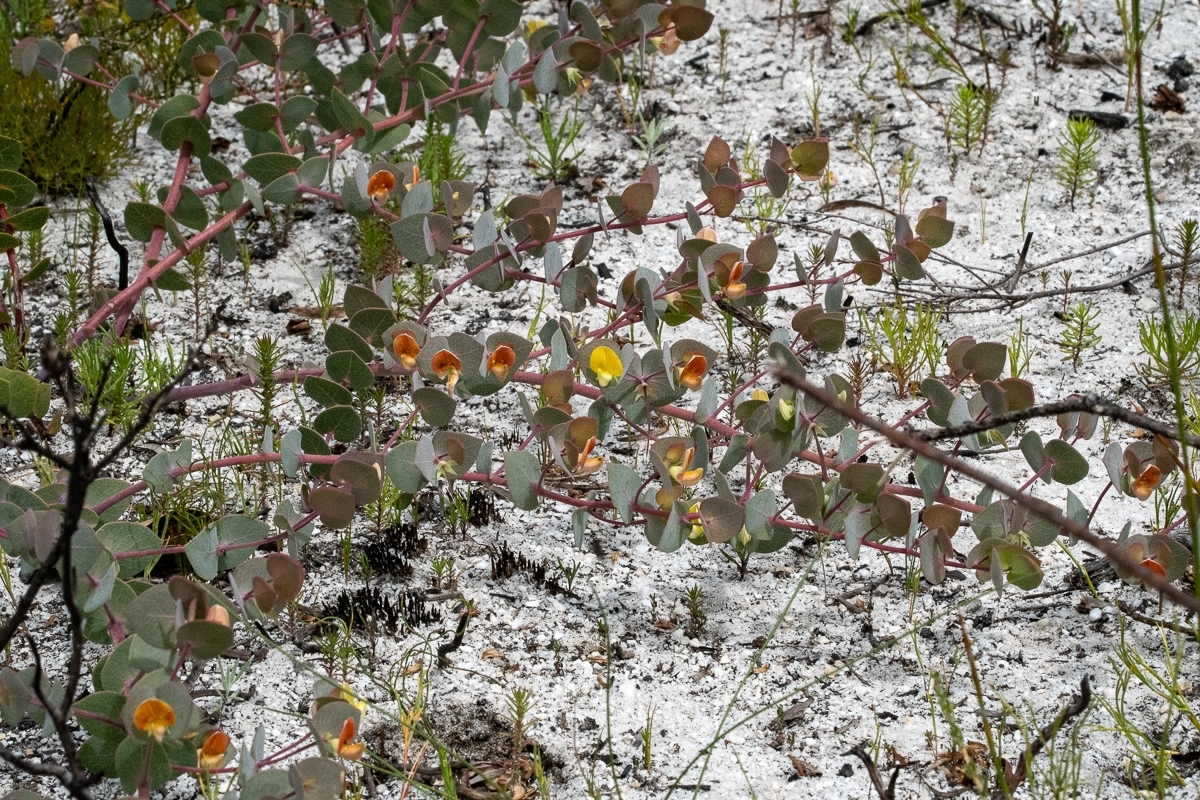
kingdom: Plantae
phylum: Tracheophyta
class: Magnoliopsida
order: Fabales
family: Fabaceae
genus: Rafnia
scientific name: Rafnia acuminata
